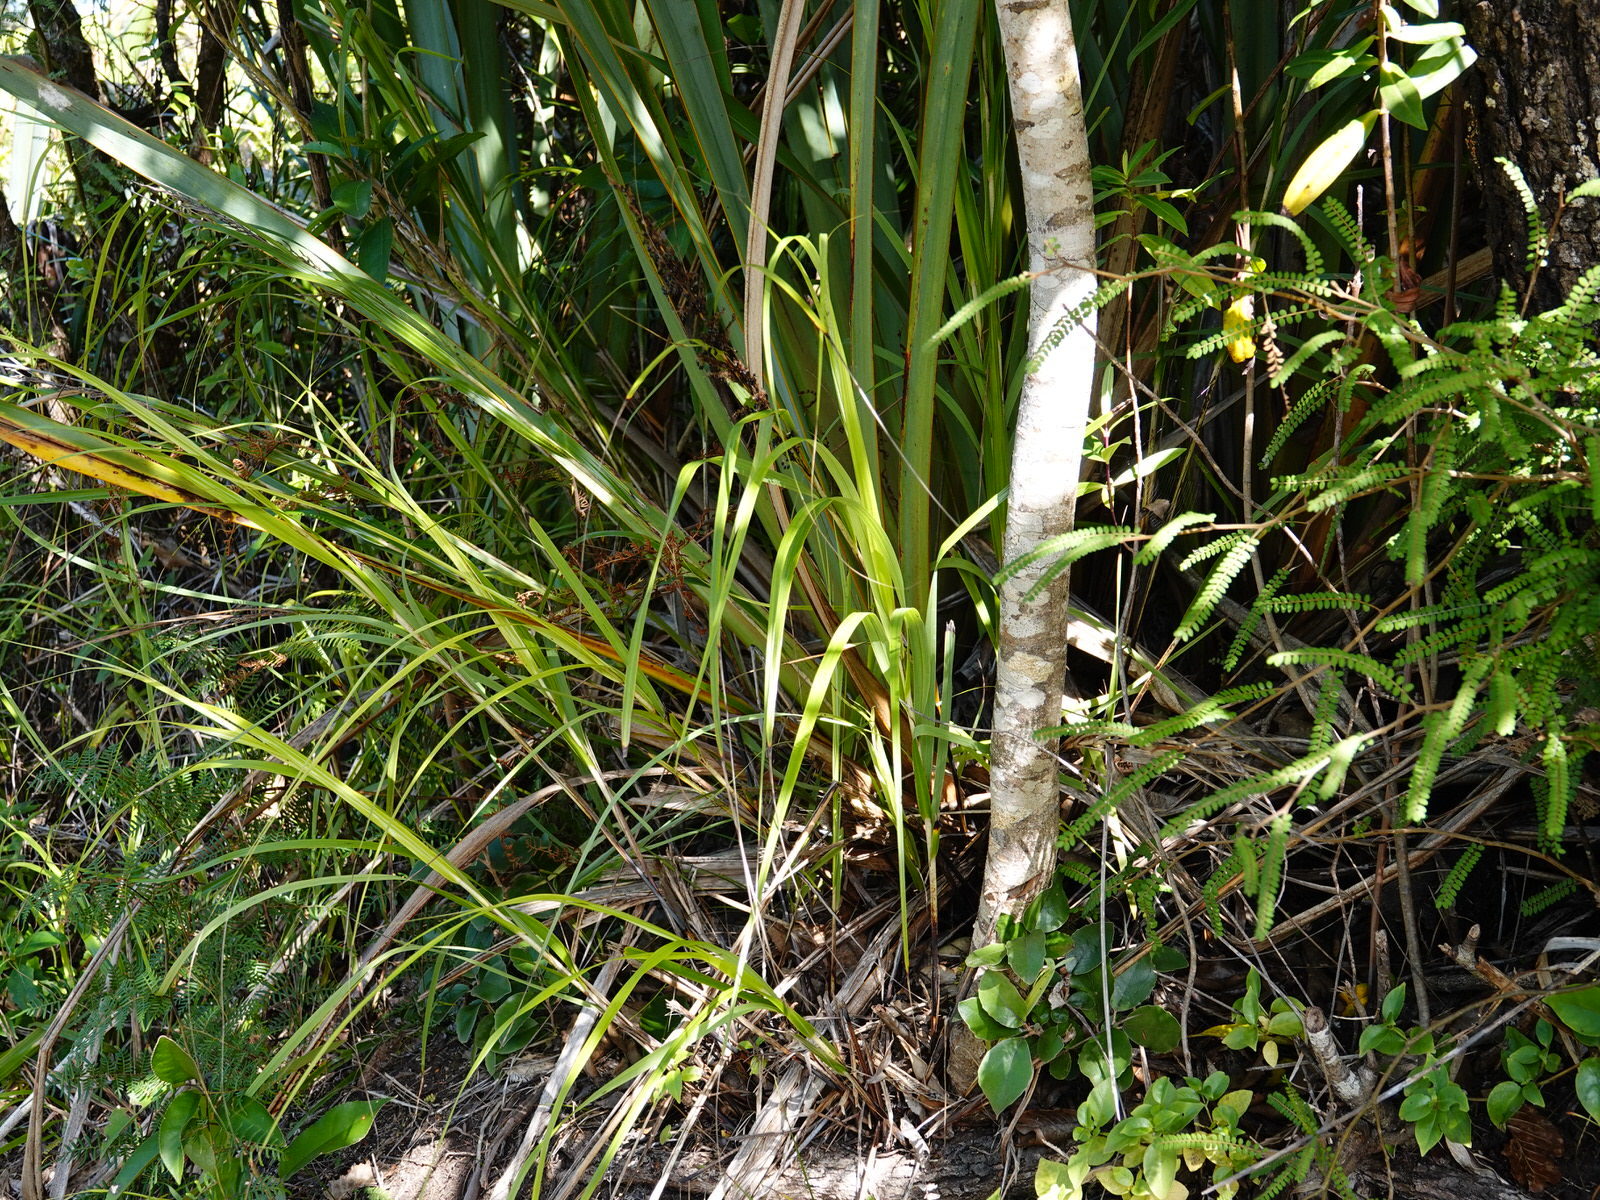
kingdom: Plantae
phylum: Tracheophyta
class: Liliopsida
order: Poales
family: Cyperaceae
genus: Gahnia
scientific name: Gahnia lacera
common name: Sawsedge
